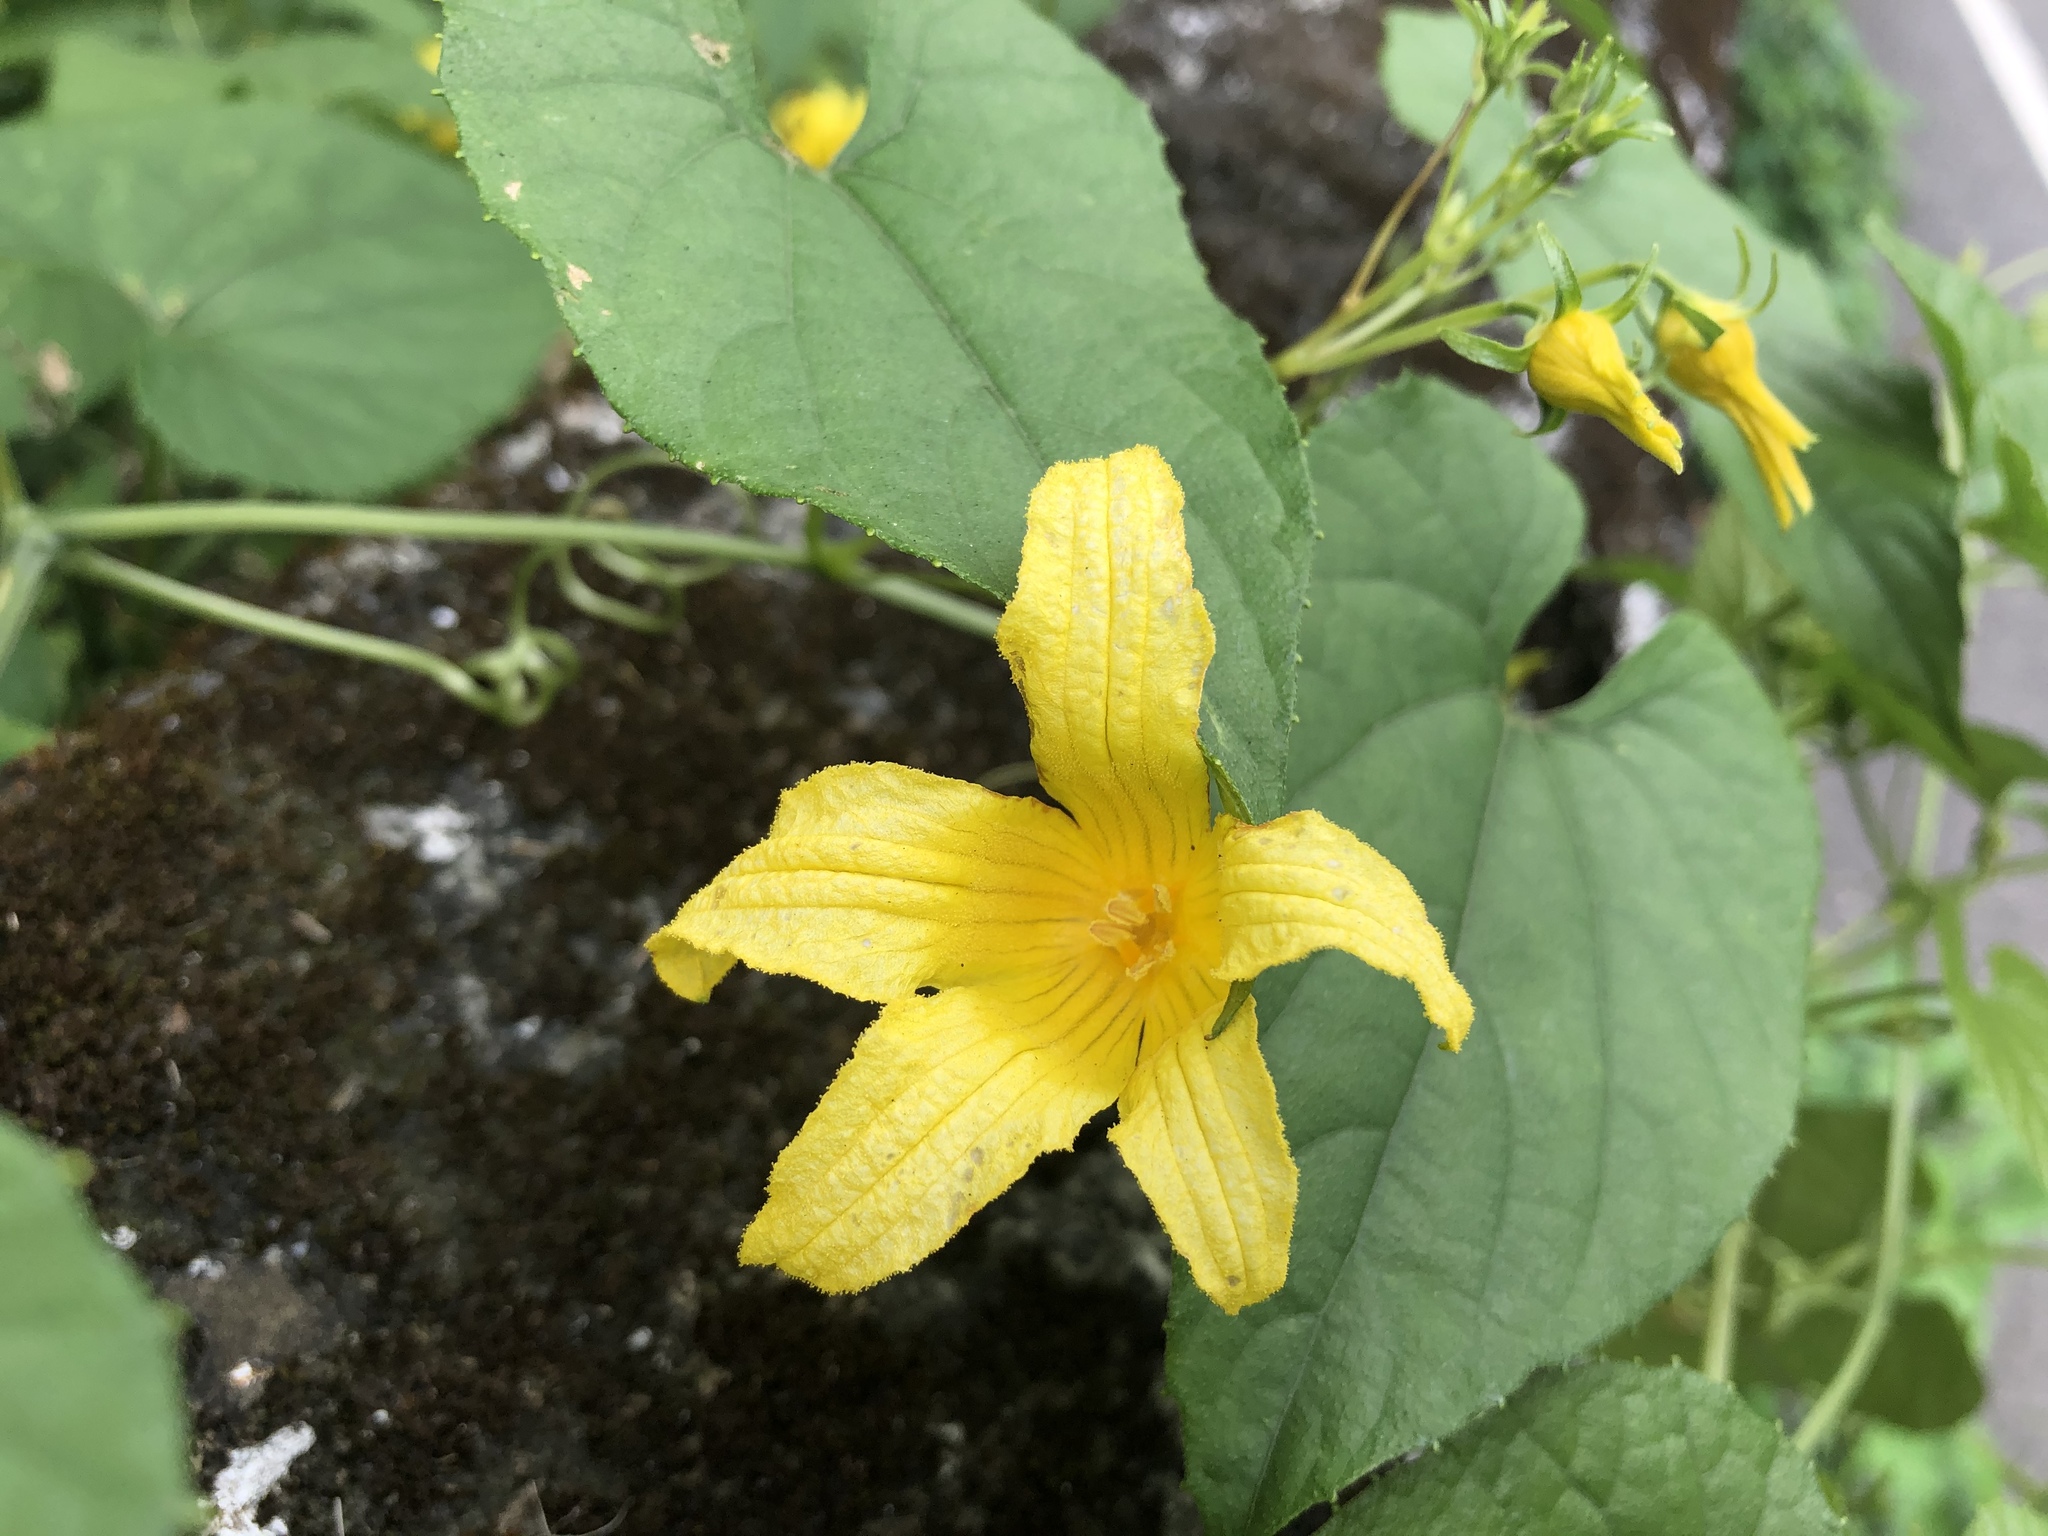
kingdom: Plantae
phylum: Tracheophyta
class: Magnoliopsida
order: Cucurbitales
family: Cucurbitaceae
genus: Thladiantha
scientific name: Thladiantha punctata
